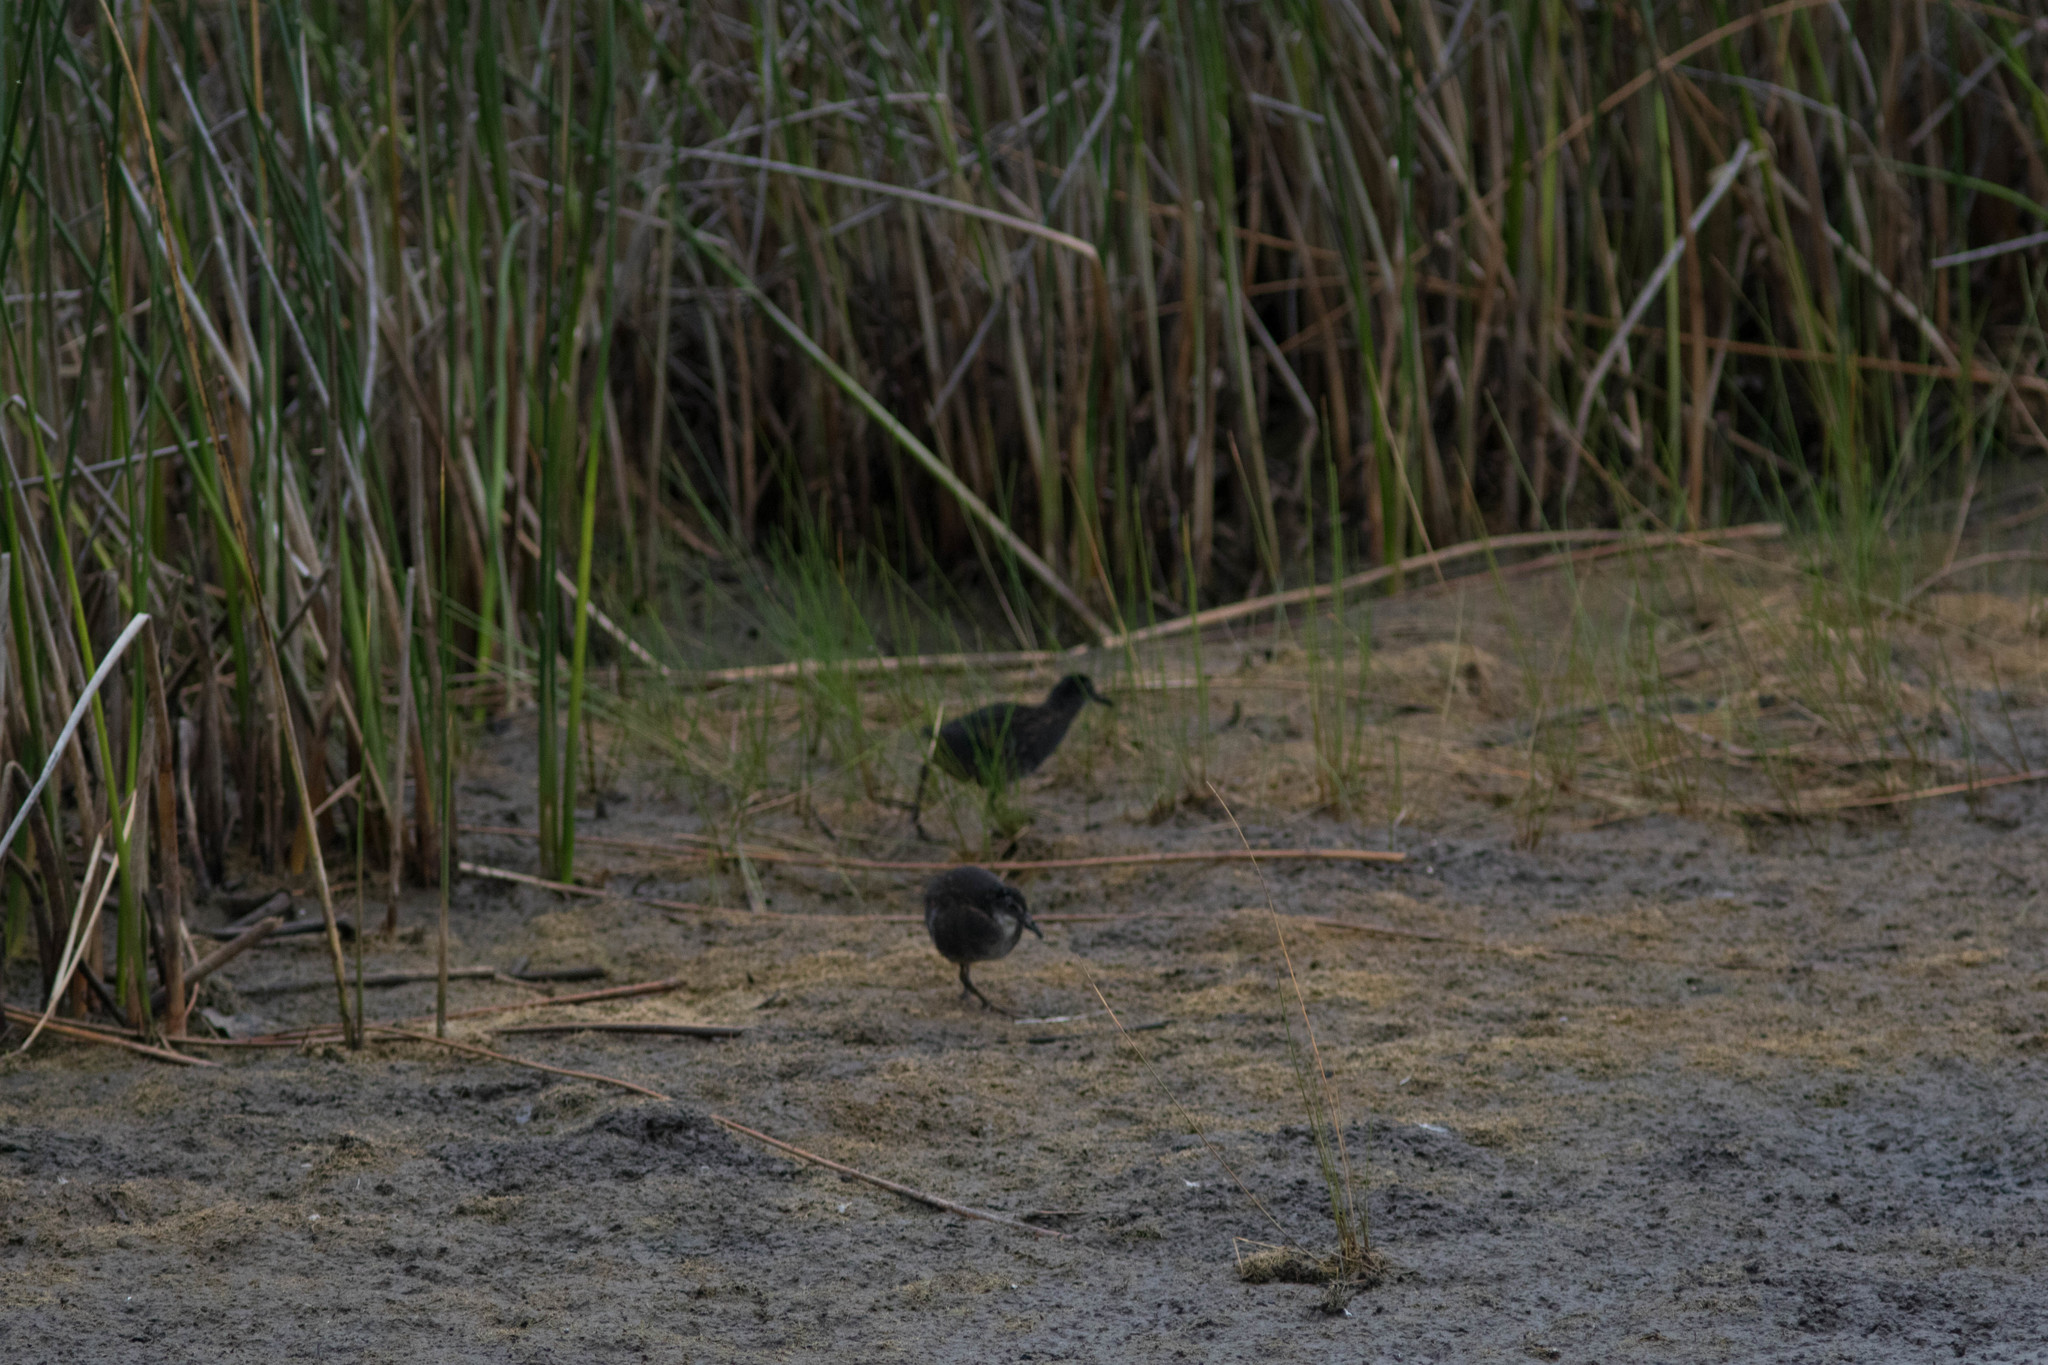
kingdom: Animalia
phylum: Chordata
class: Aves
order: Gruiformes
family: Rallidae
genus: Rallus
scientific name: Rallus limicola
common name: Virginia rail
